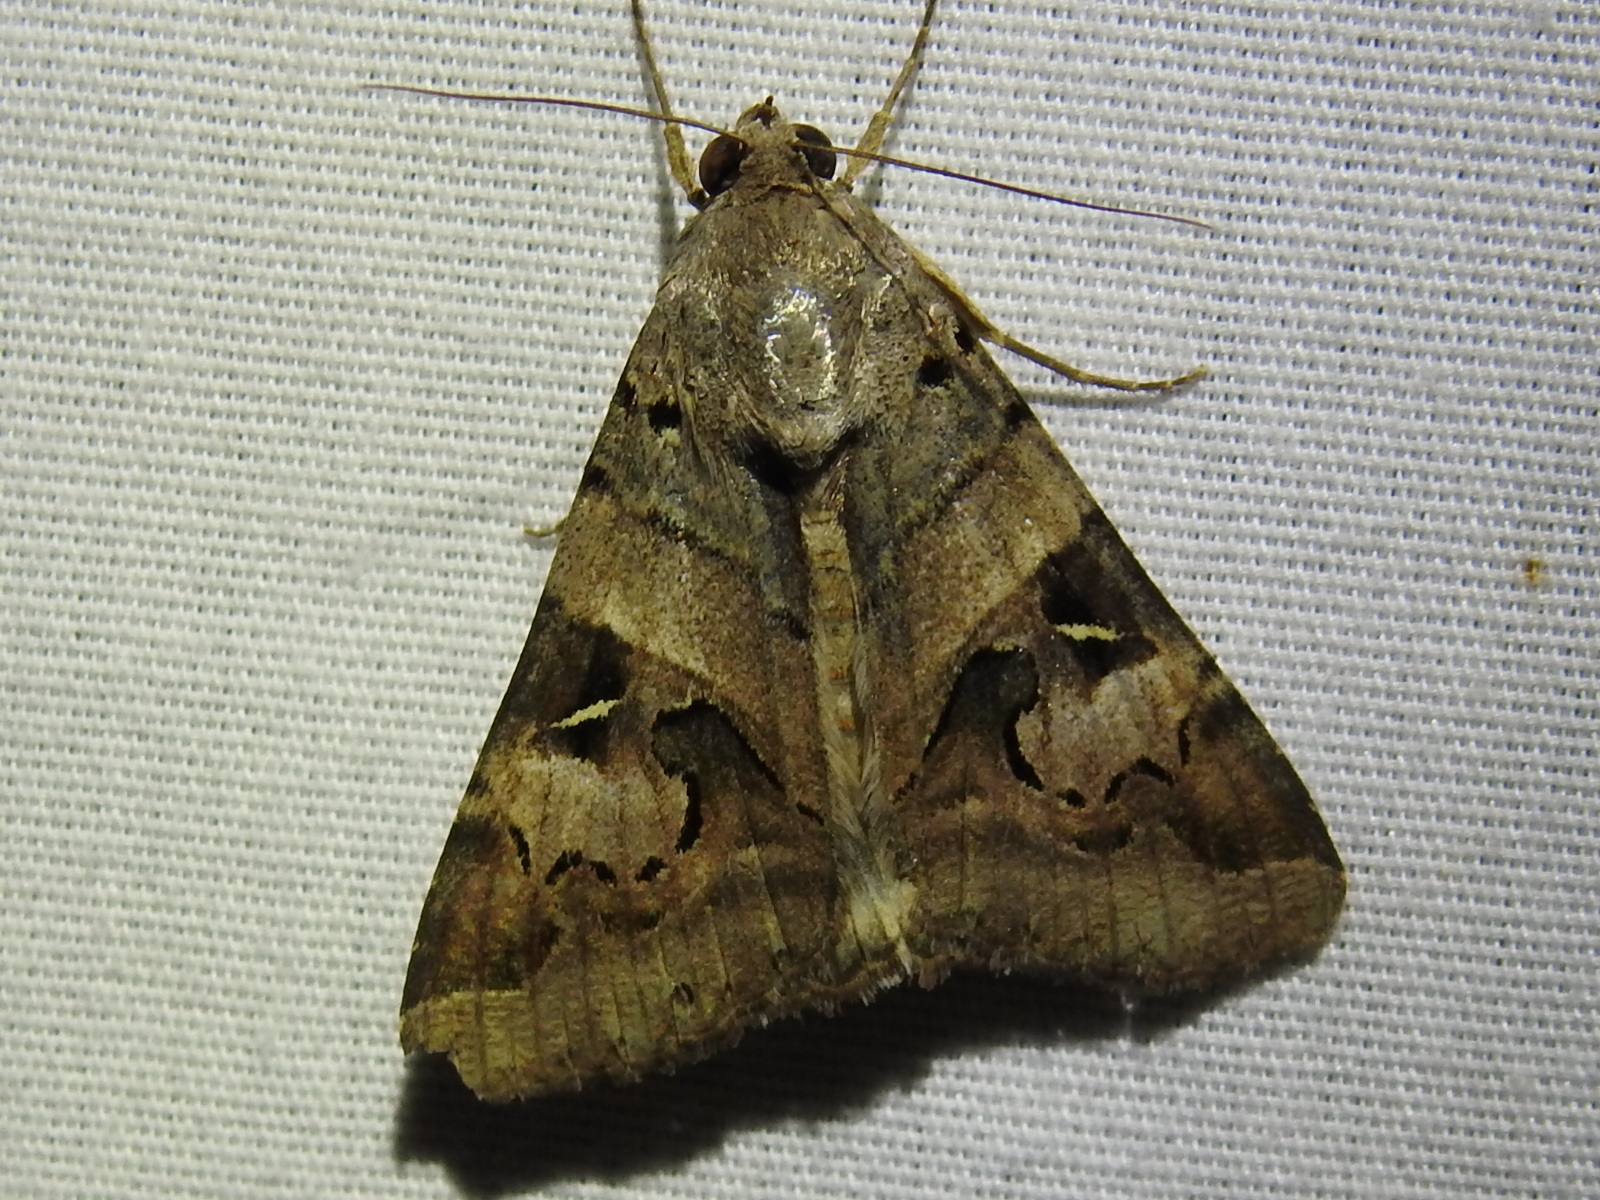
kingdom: Animalia
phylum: Arthropoda
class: Insecta
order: Lepidoptera
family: Erebidae
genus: Melipotis
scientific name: Melipotis indomita
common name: Moth
